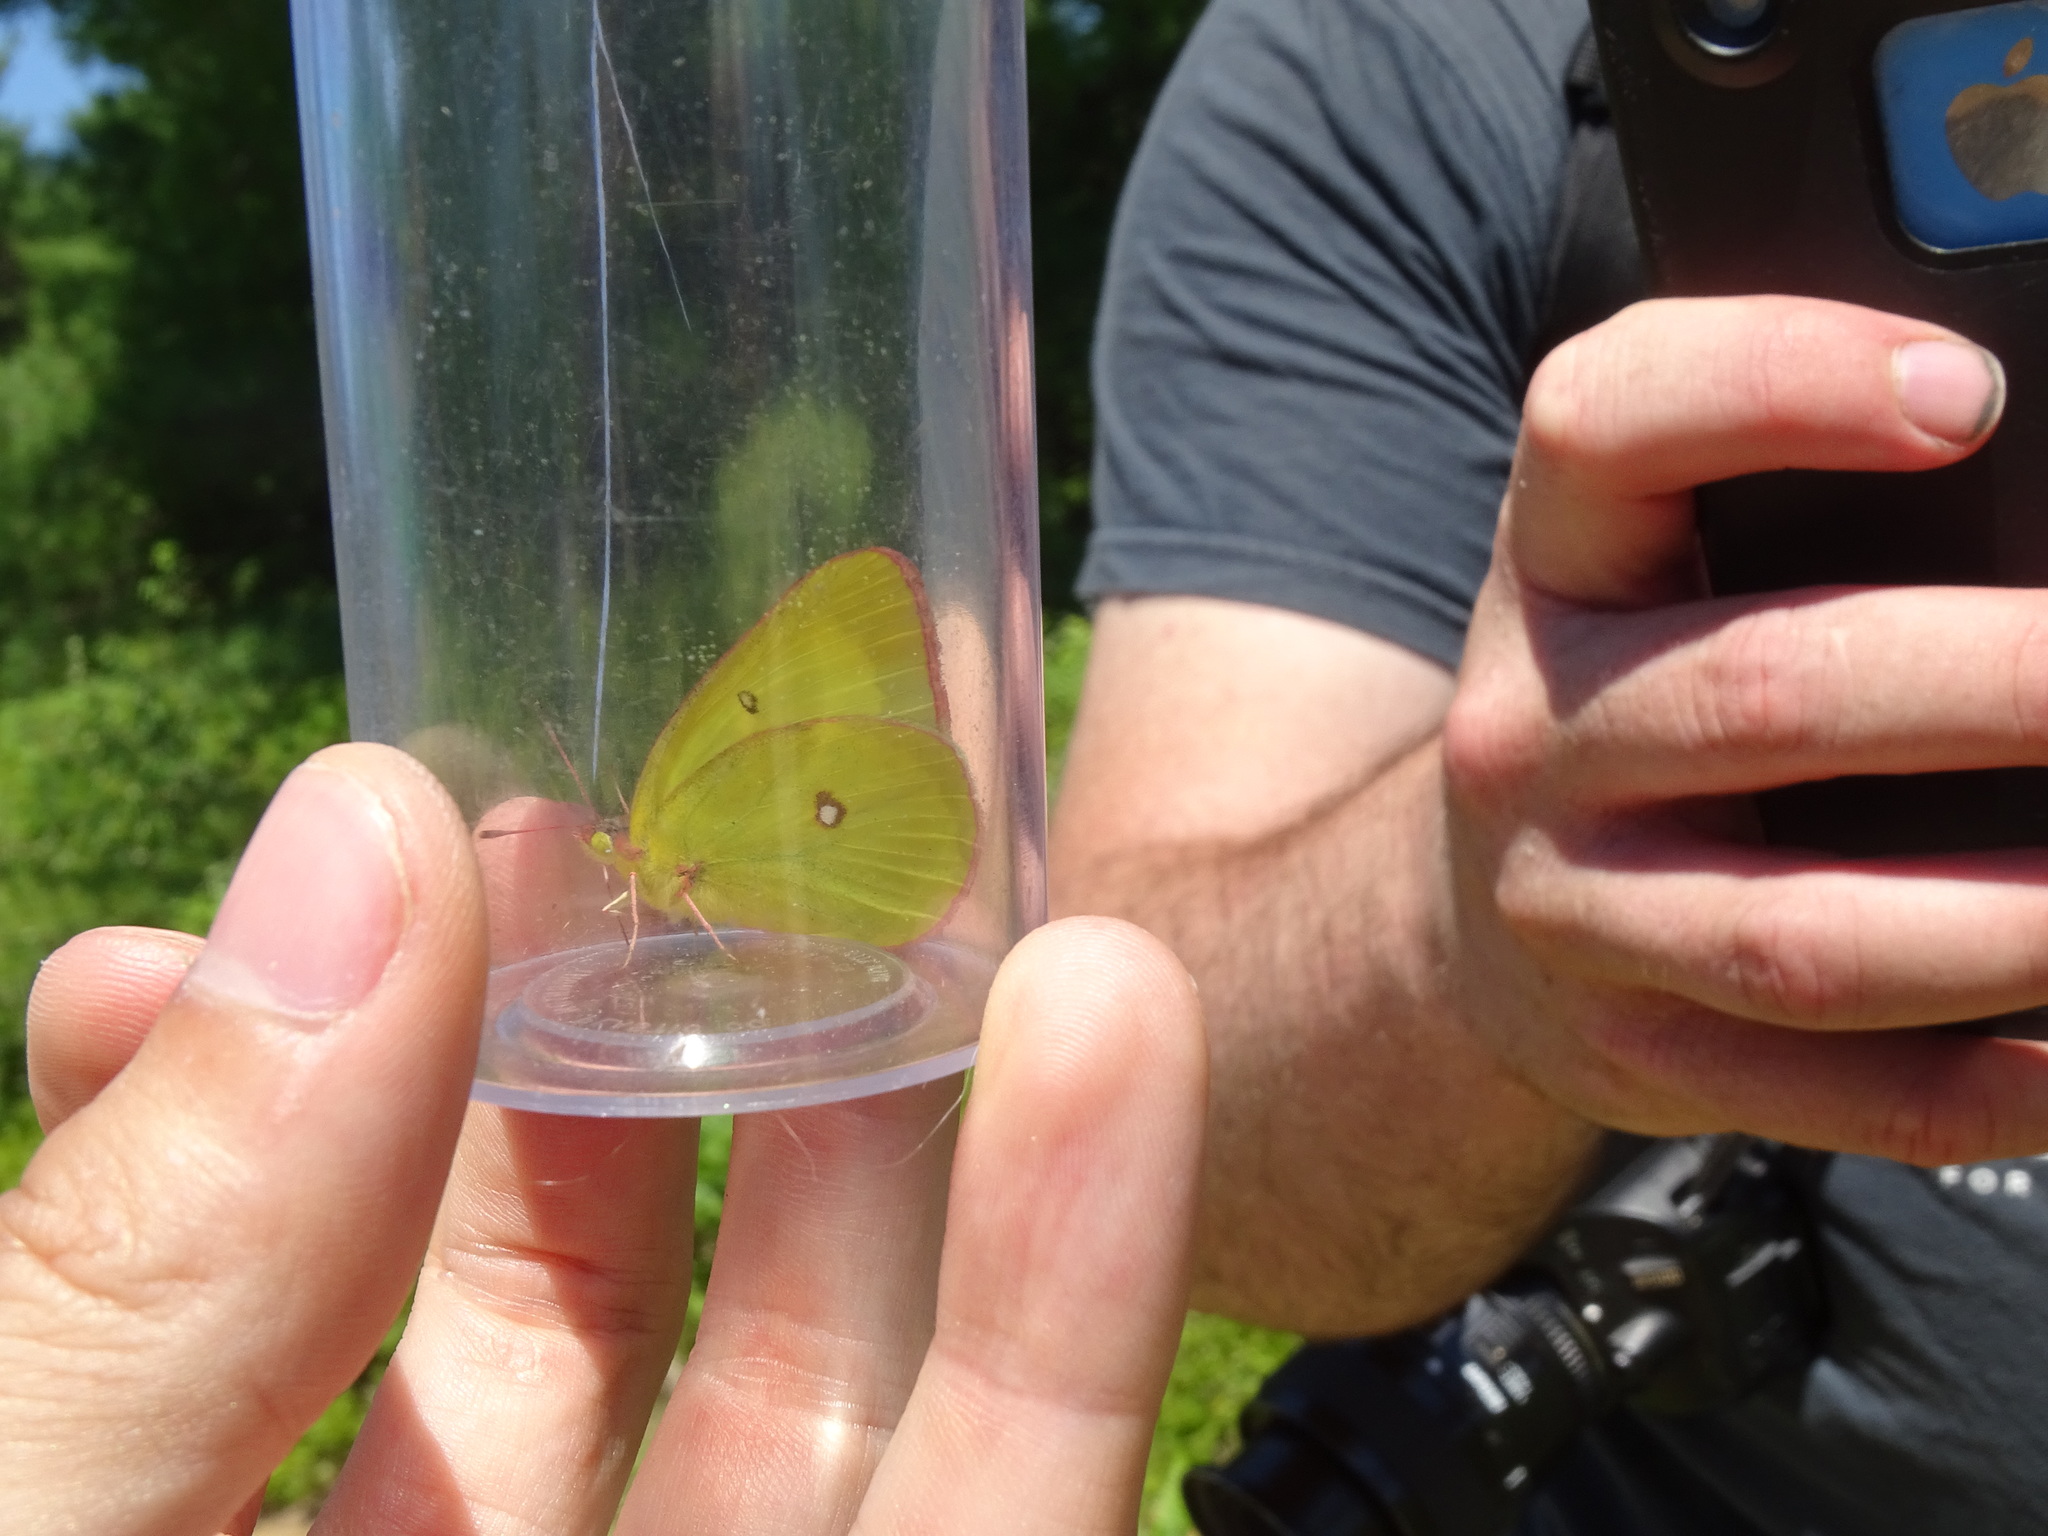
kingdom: Animalia
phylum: Arthropoda
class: Insecta
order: Lepidoptera
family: Pieridae
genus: Colias
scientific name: Colias interior
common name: Pink-edged sulphur
